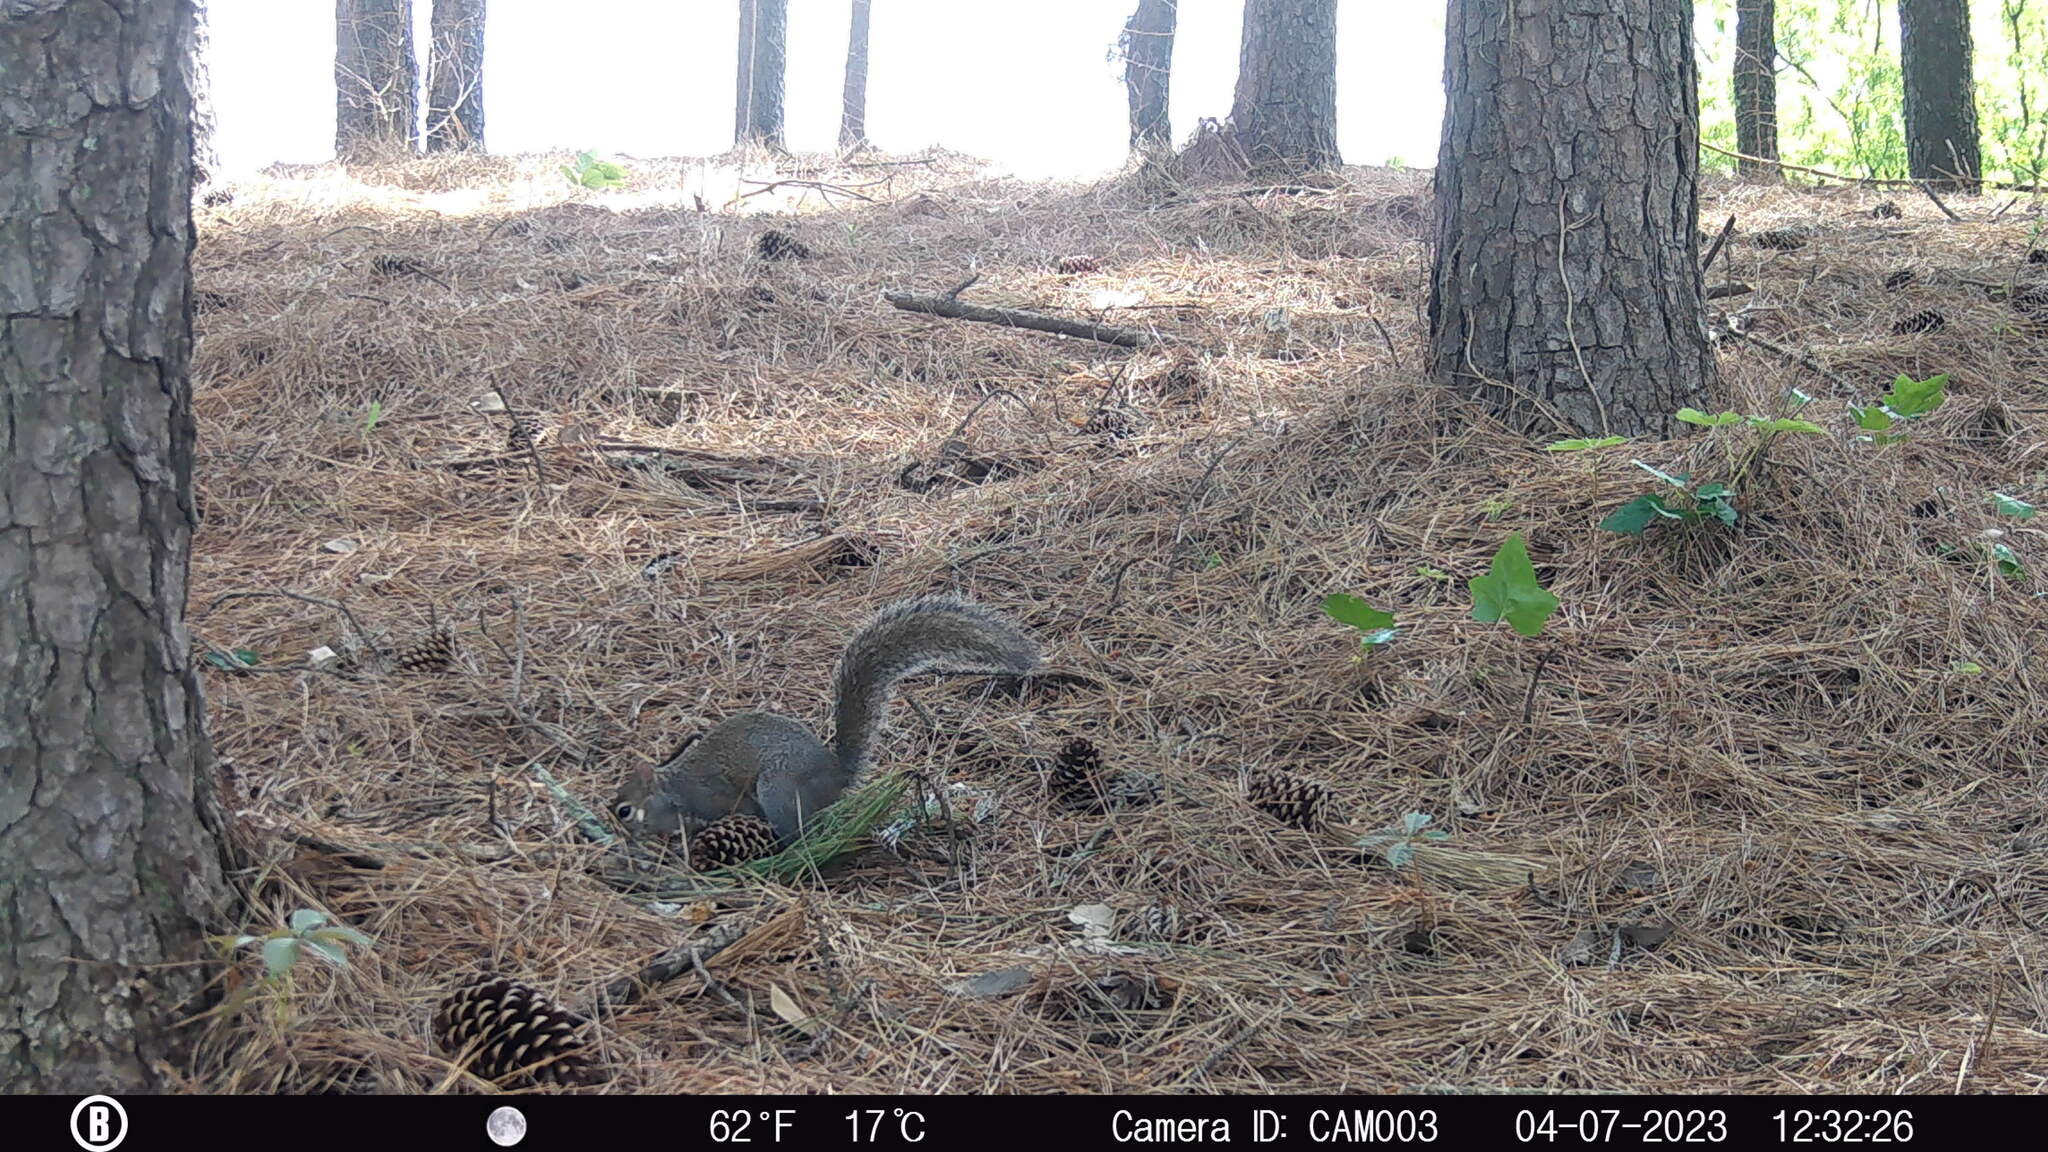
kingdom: Animalia
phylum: Chordata
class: Mammalia
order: Rodentia
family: Sciuridae
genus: Sciurus
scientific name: Sciurus carolinensis
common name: Eastern gray squirrel
